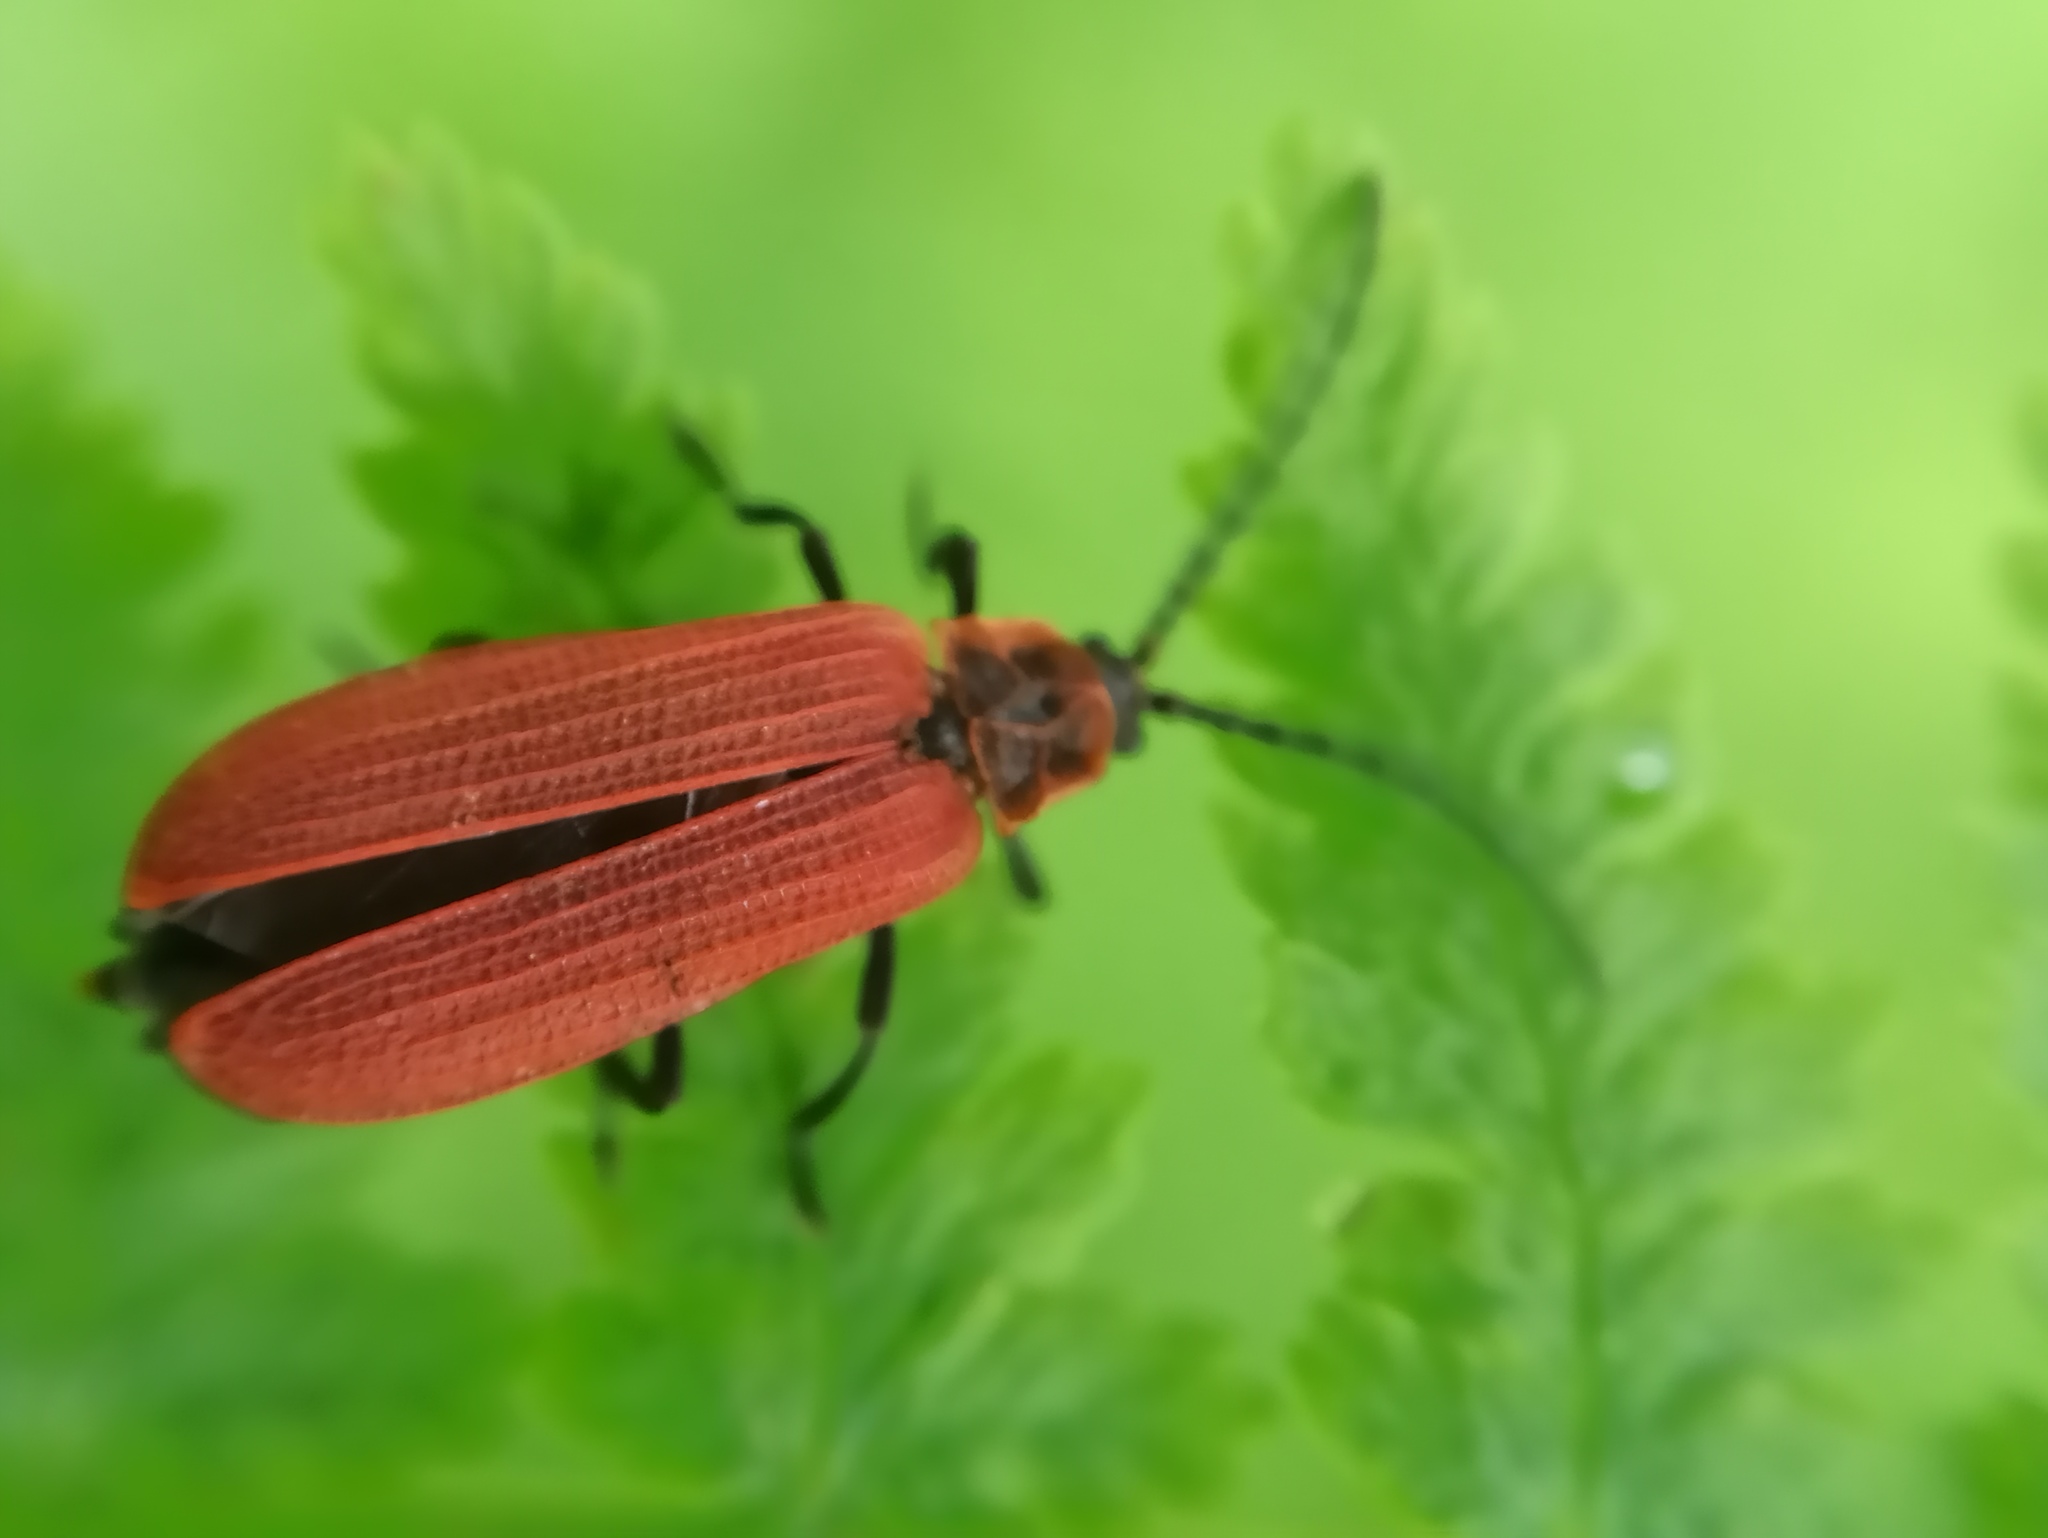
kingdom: Animalia
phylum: Arthropoda
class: Insecta
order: Coleoptera
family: Lycidae
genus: Dictyoptera
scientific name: Dictyoptera aurora
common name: Golden net-winged beetle
